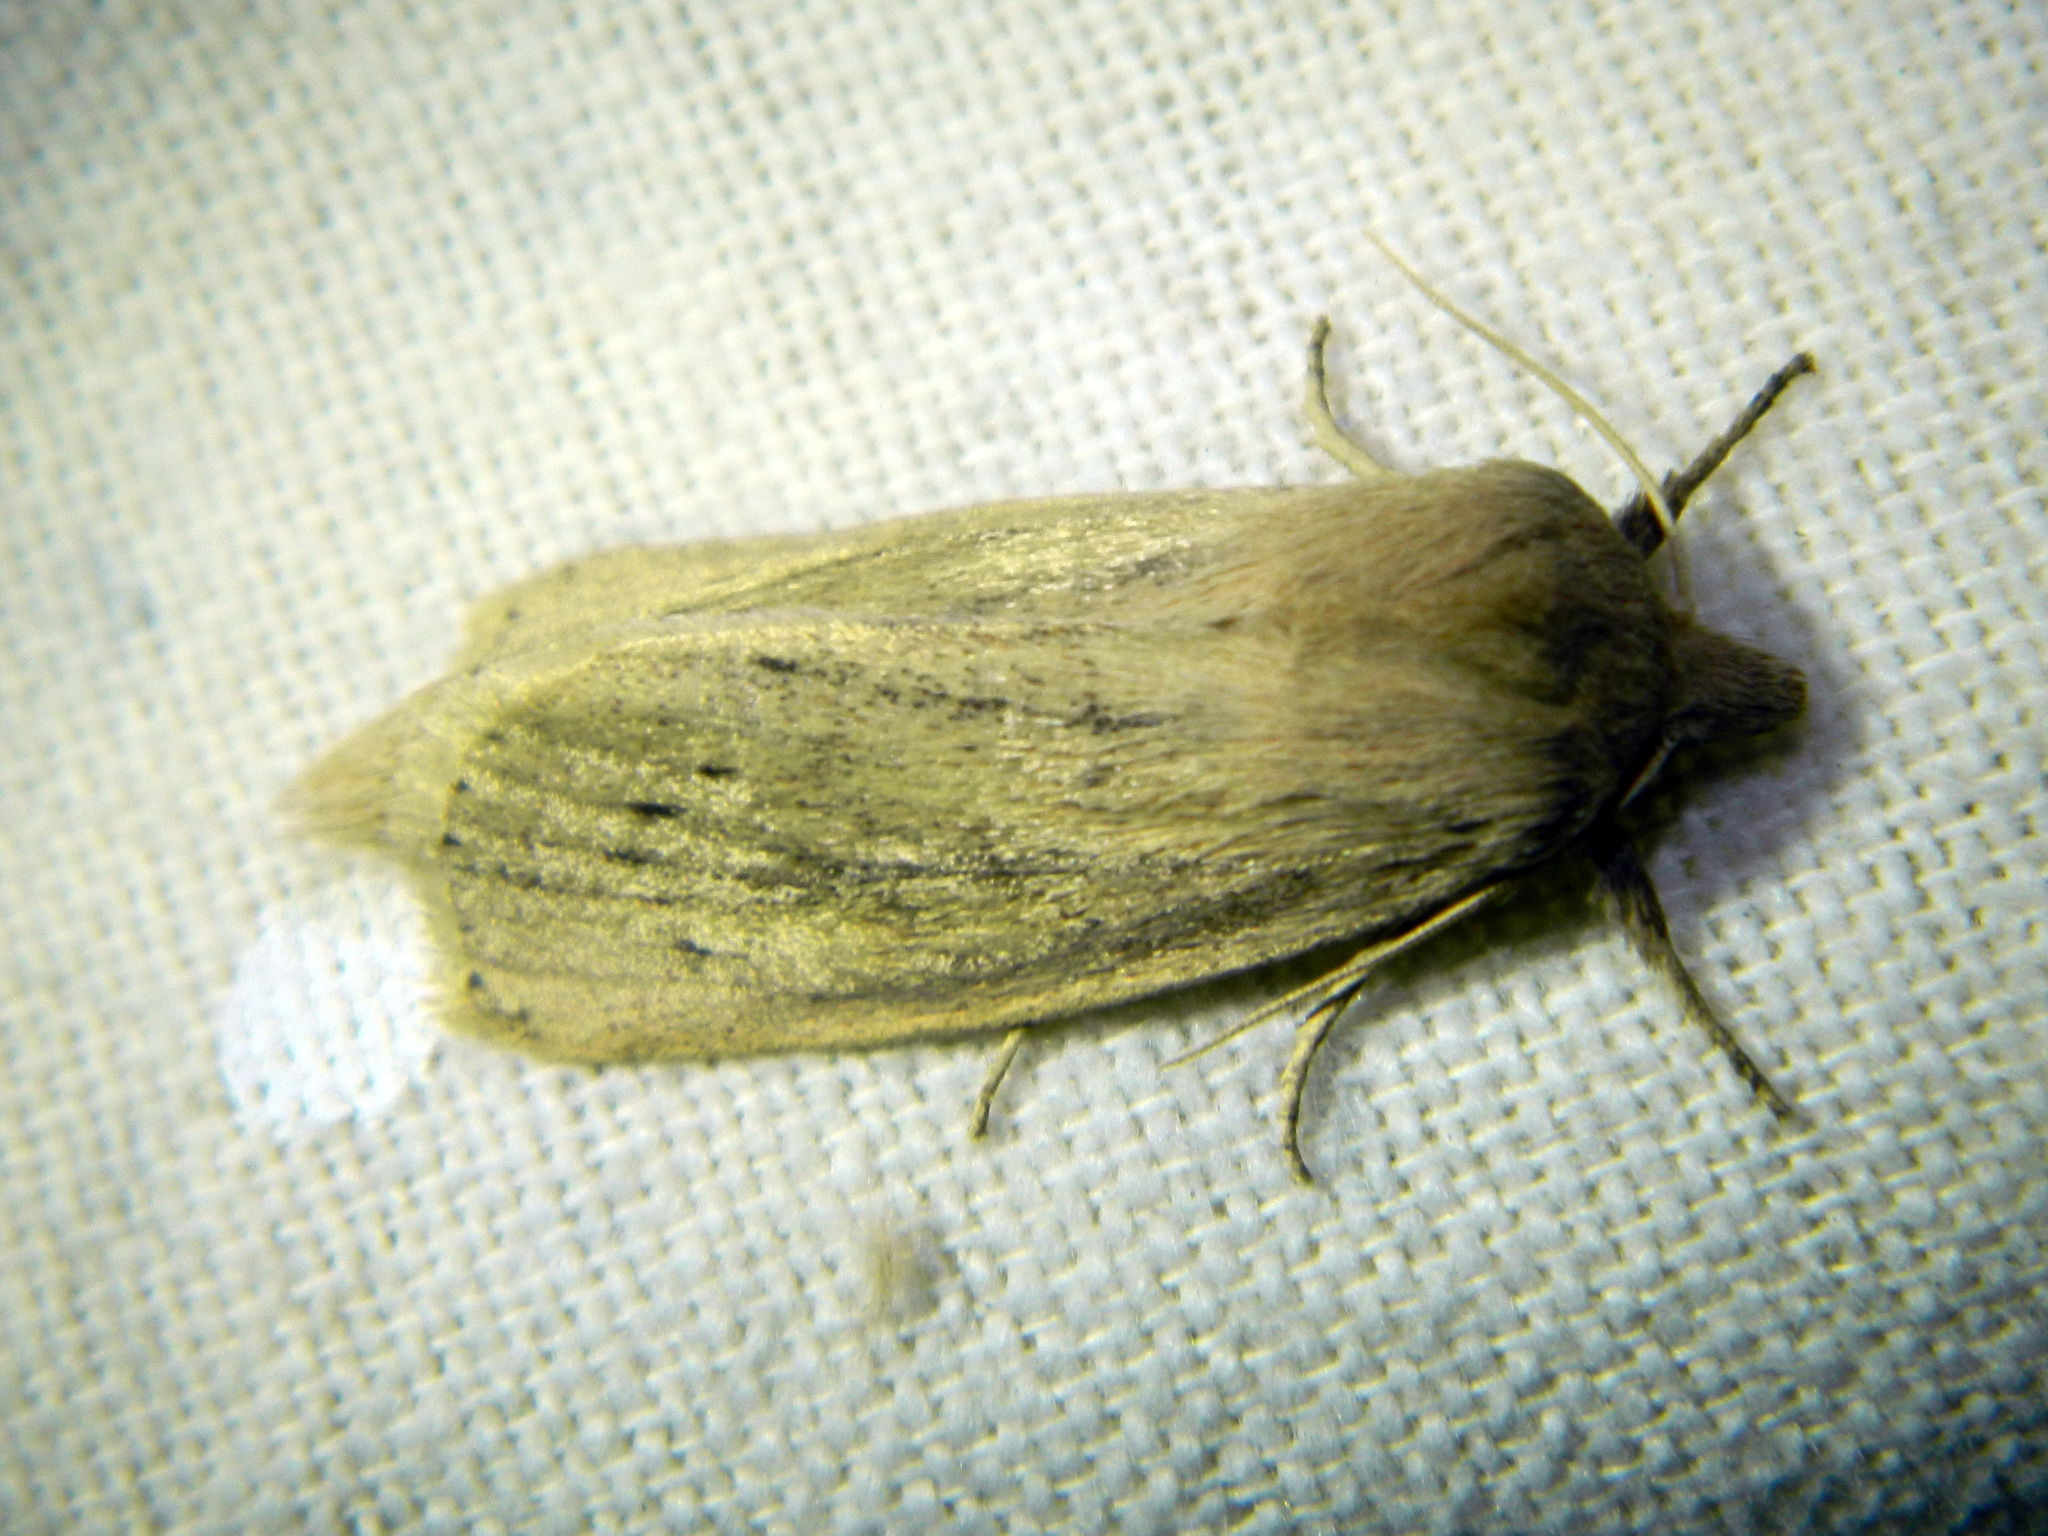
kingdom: Animalia
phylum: Arthropoda
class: Insecta
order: Lepidoptera
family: Noctuidae
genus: Globia
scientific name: Globia oblonga
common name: Oblong sedge borer moth
